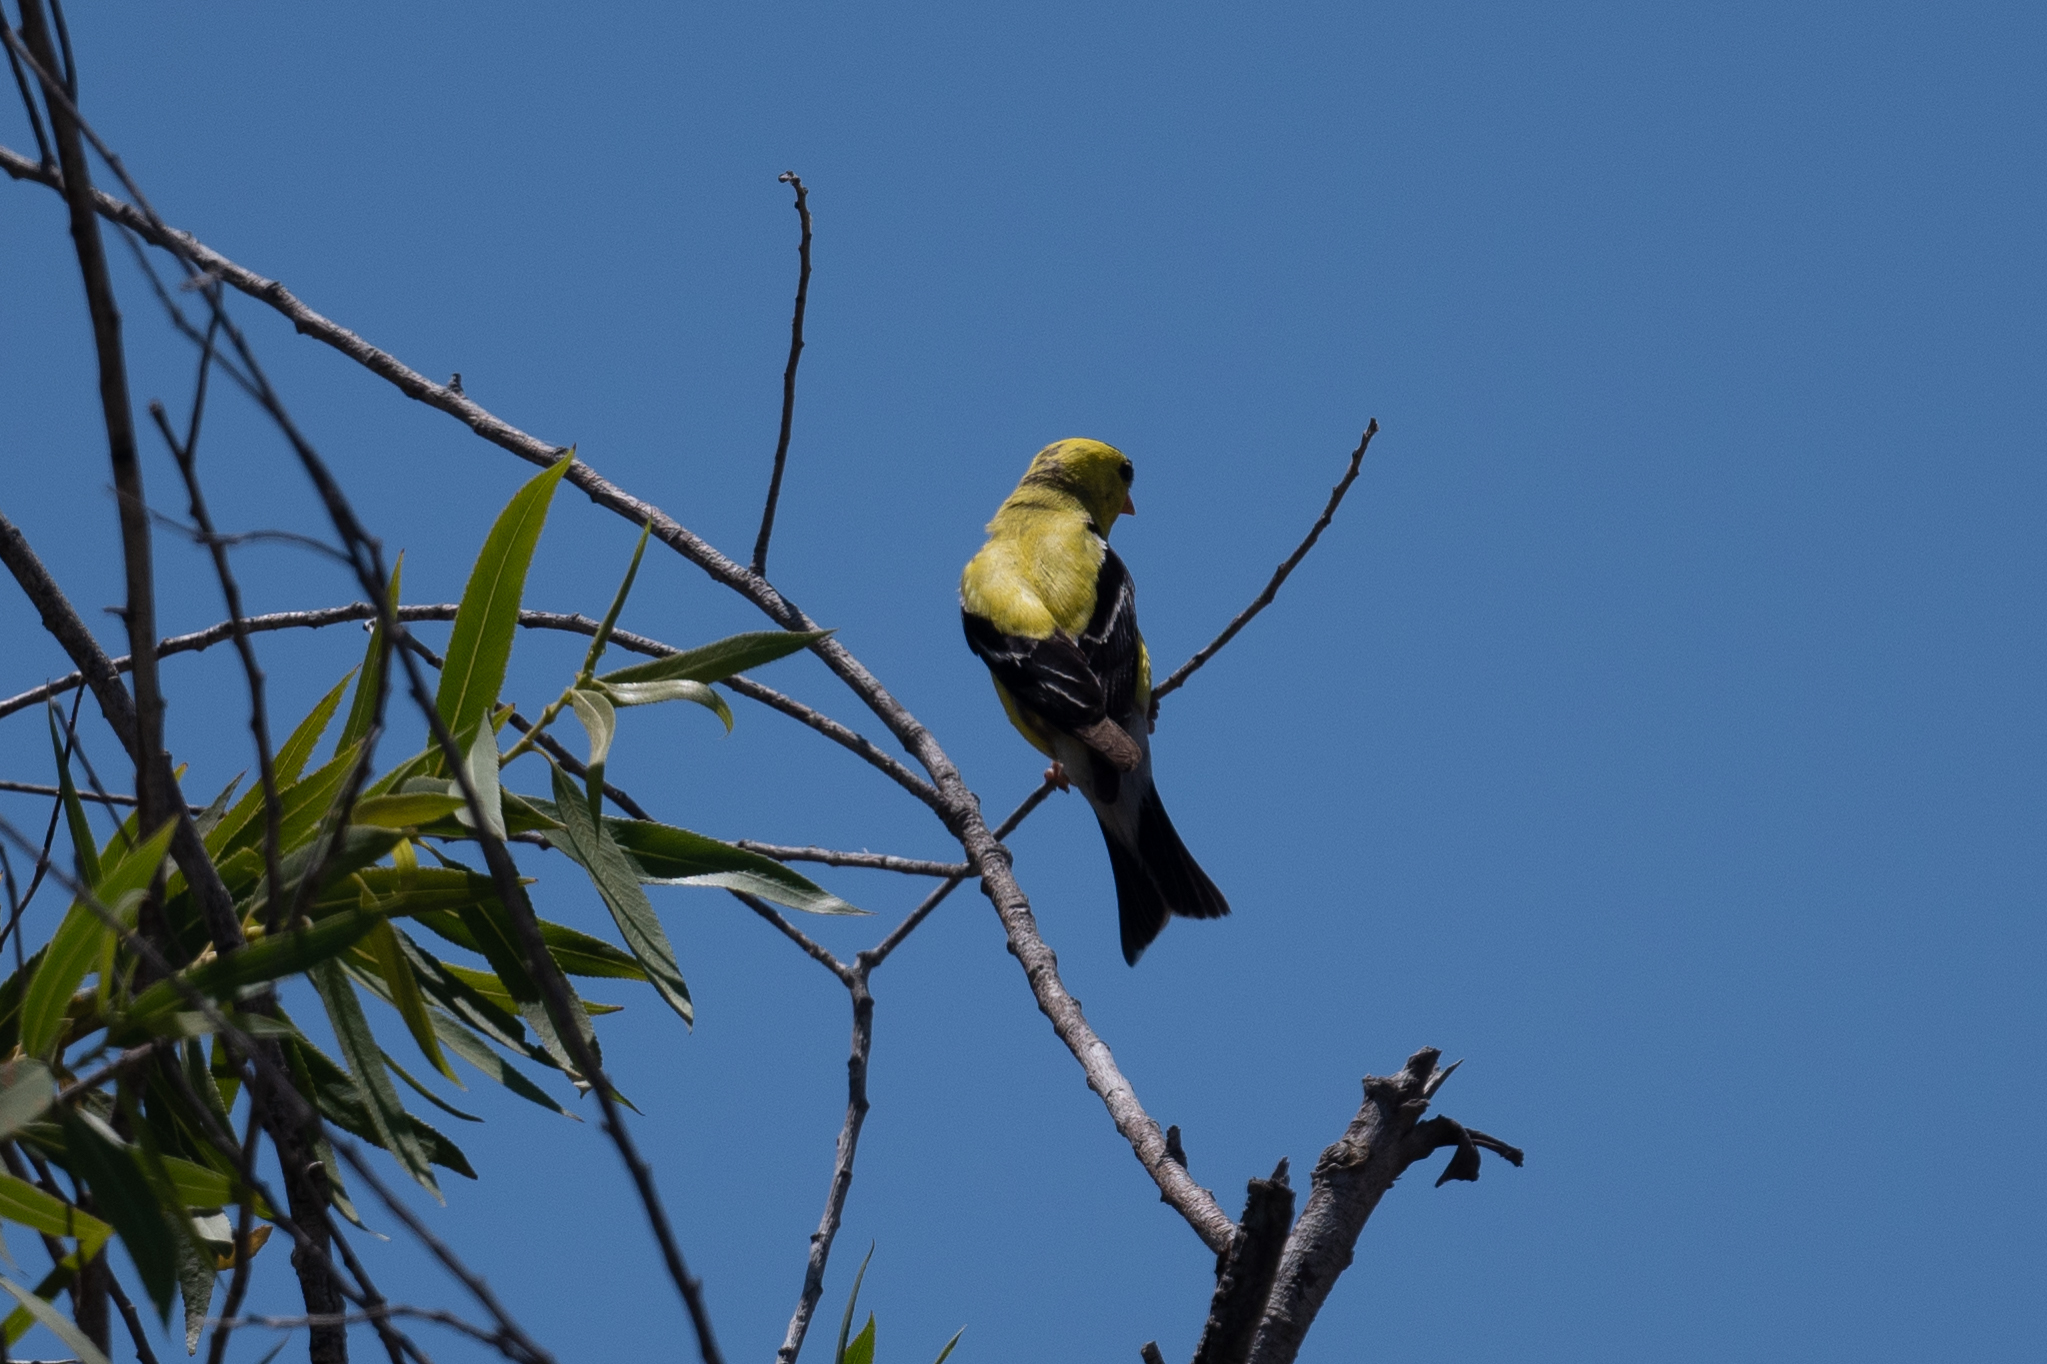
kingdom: Animalia
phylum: Chordata
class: Aves
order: Passeriformes
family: Fringillidae
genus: Spinus
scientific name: Spinus tristis
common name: American goldfinch
